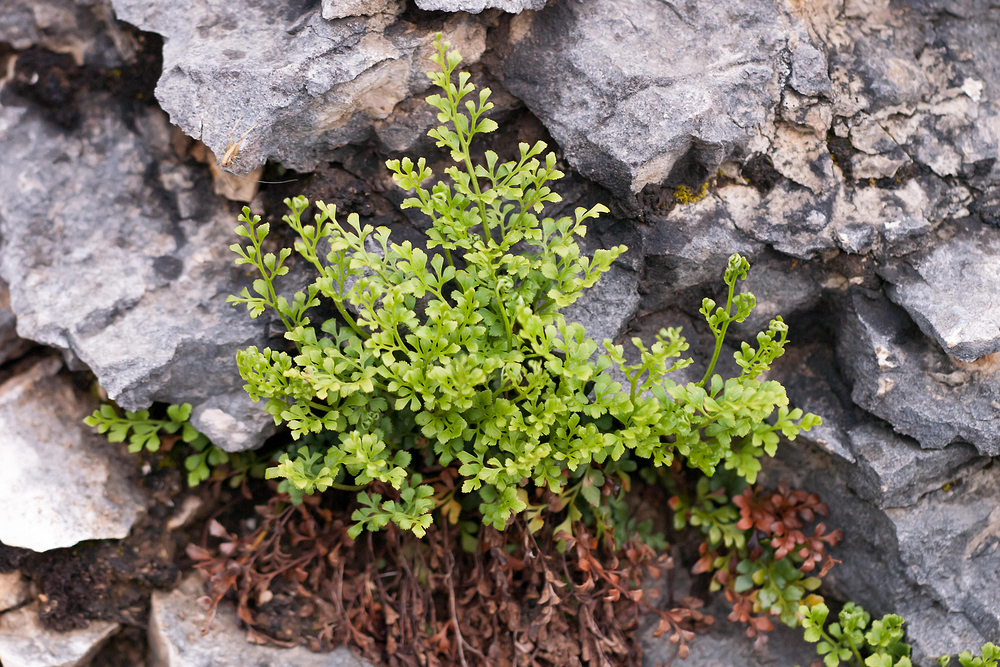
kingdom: Plantae
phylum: Tracheophyta
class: Polypodiopsida
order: Polypodiales
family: Aspleniaceae
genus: Asplenium
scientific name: Asplenium ruta-muraria
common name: Wall-rue
